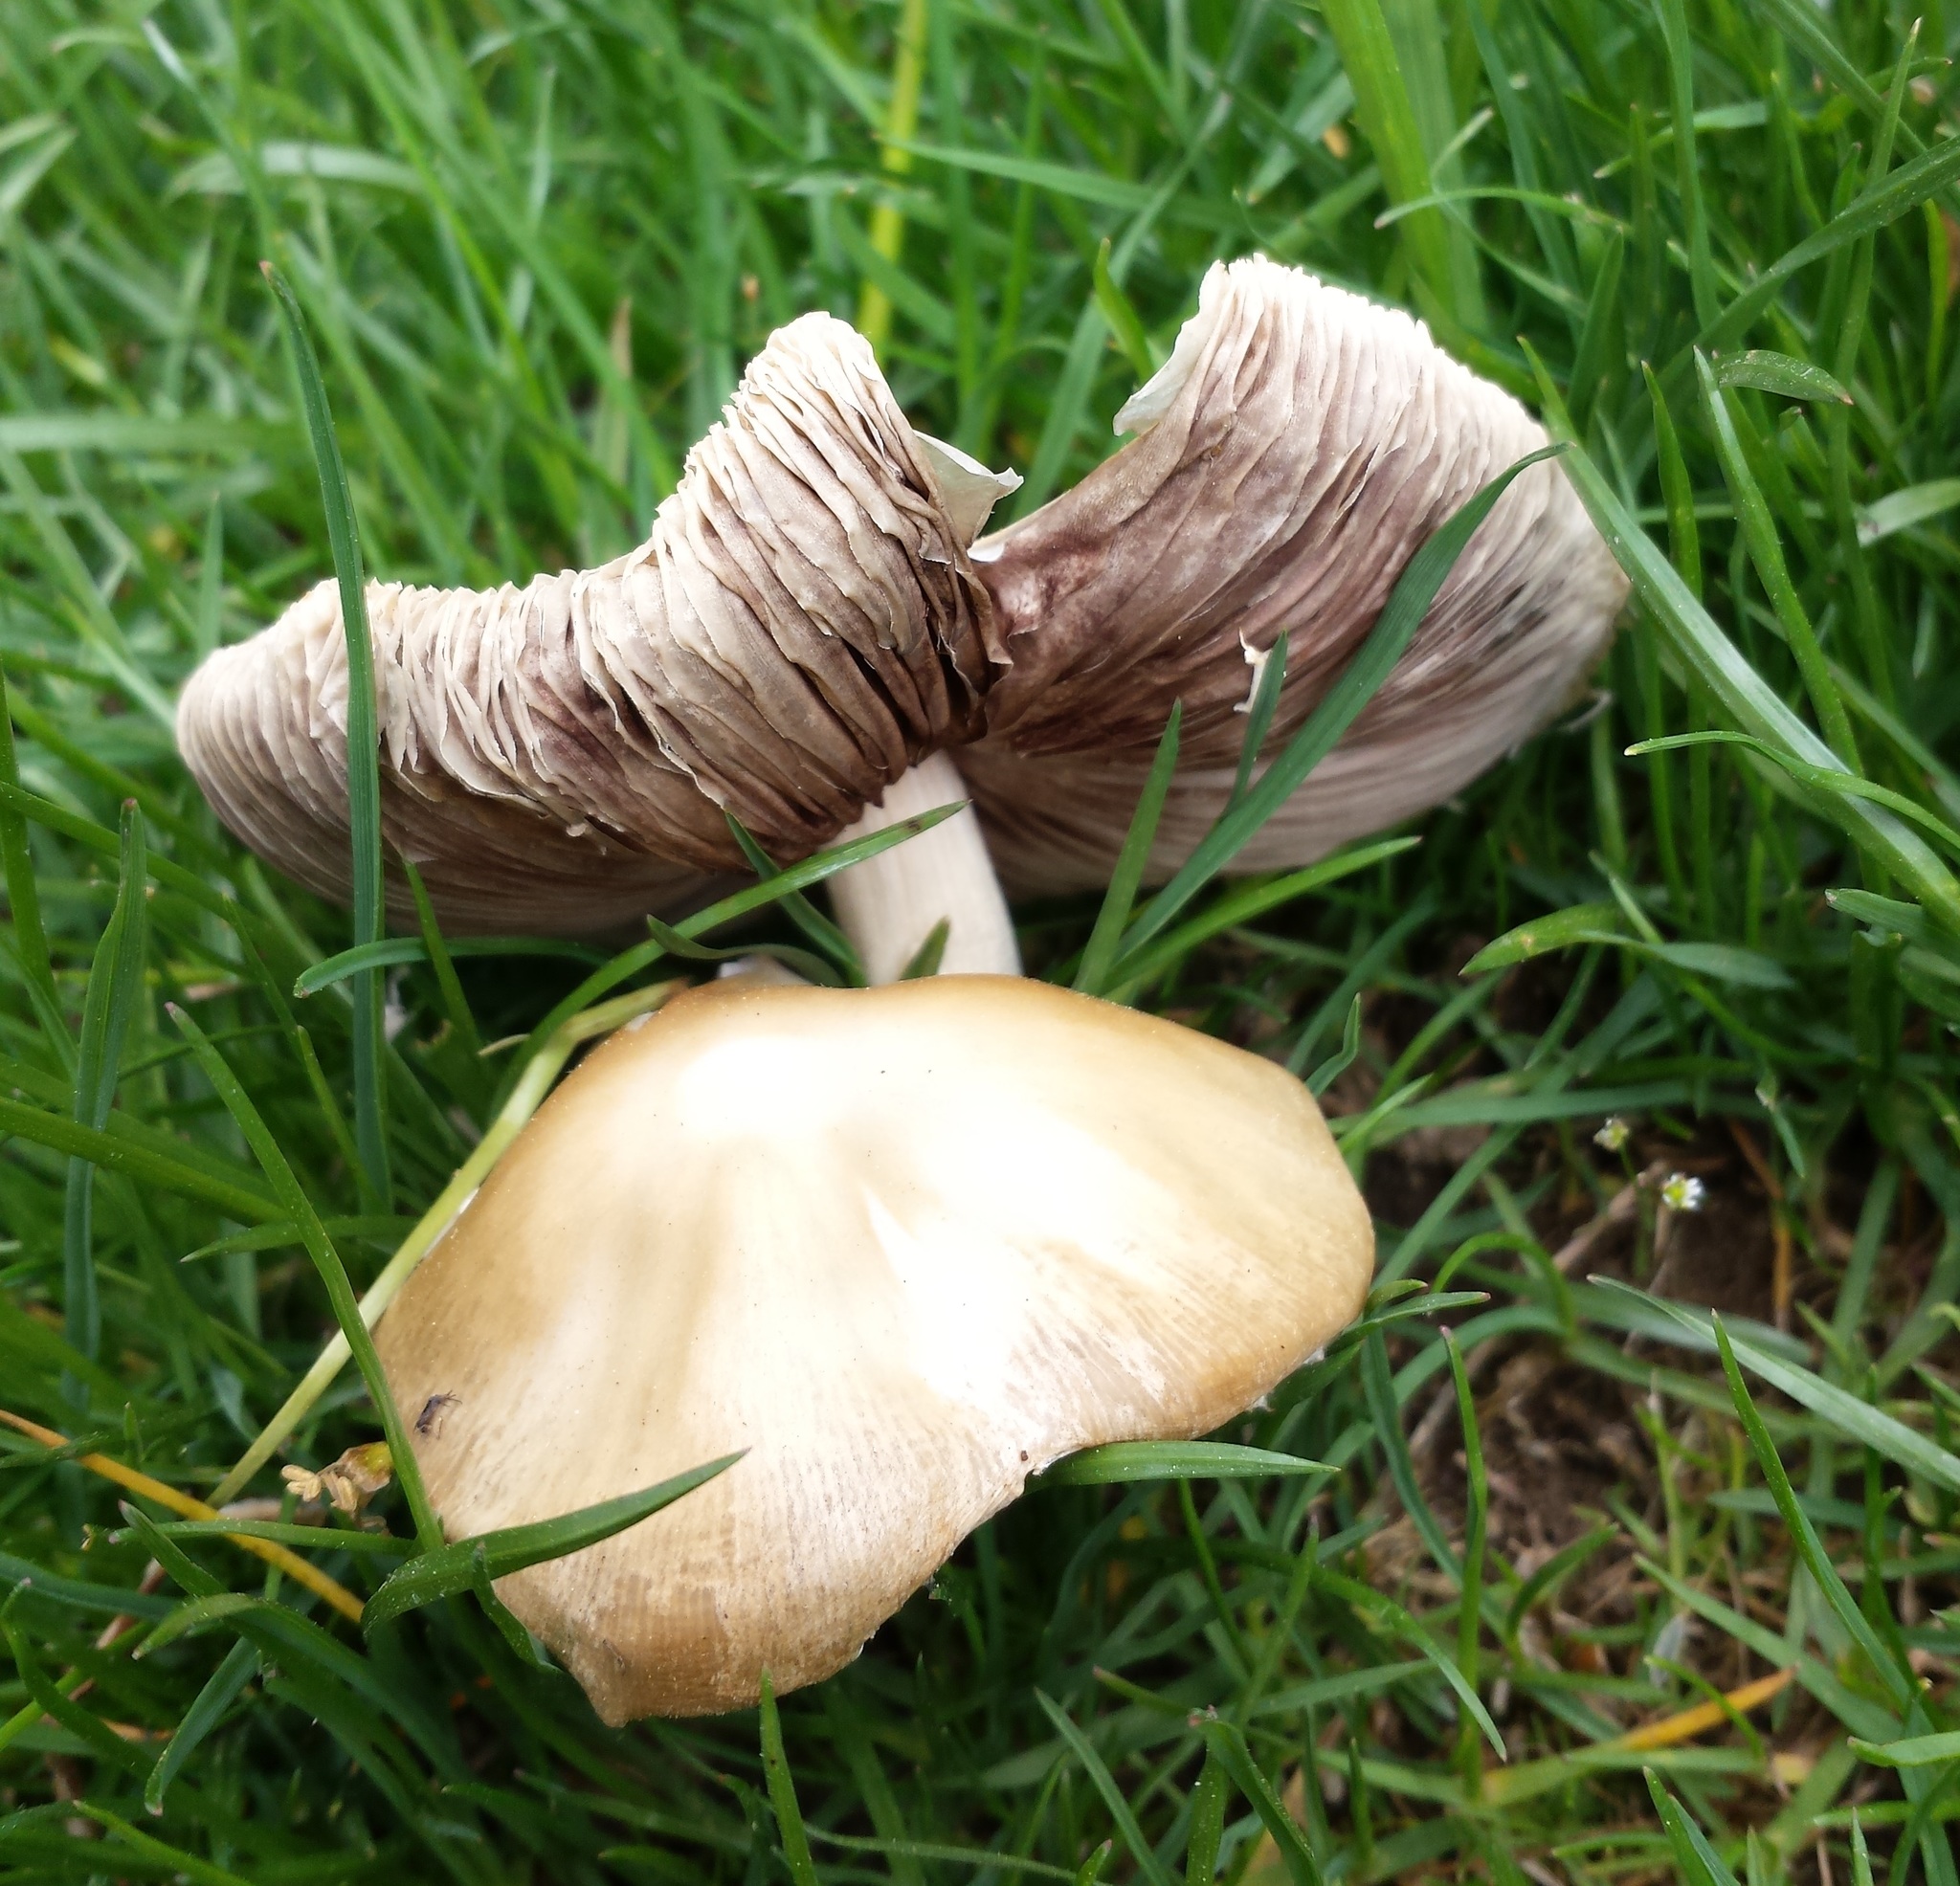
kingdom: Fungi
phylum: Basidiomycota
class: Agaricomycetes
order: Agaricales
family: Strophariaceae
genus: Agrocybe
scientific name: Agrocybe praecox
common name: Spring fieldcap
